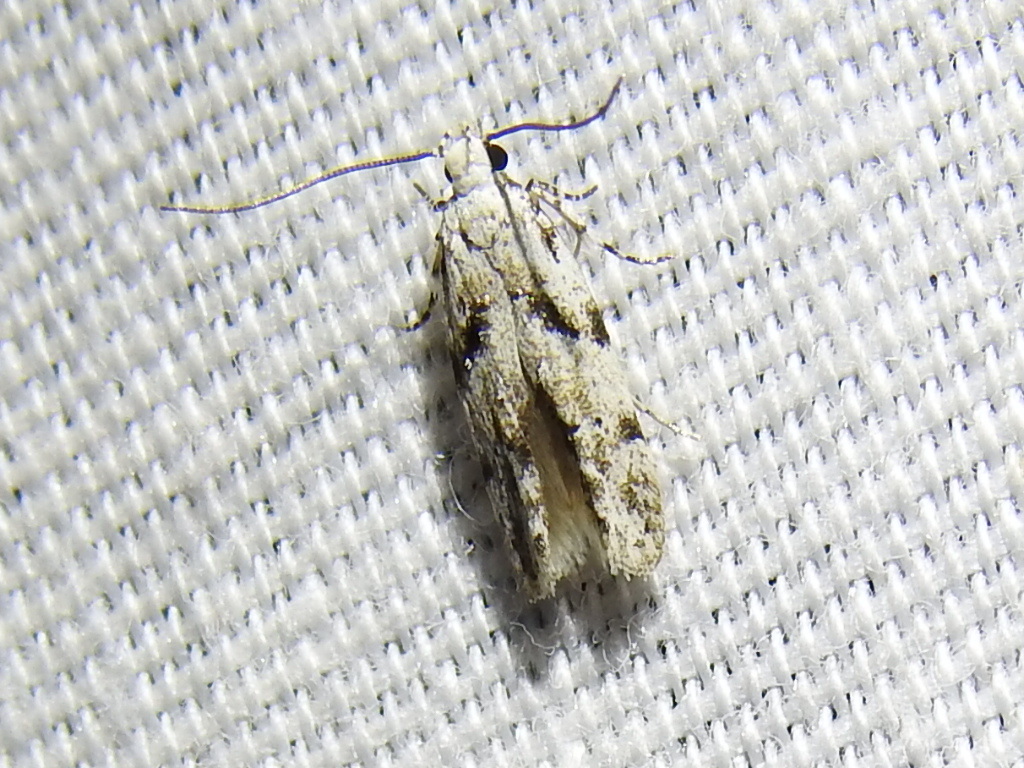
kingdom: Animalia
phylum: Arthropoda
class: Insecta
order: Lepidoptera
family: Gelechiidae
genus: Arogalea
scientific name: Arogalea cristifasciella
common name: White stripe-backed moth
